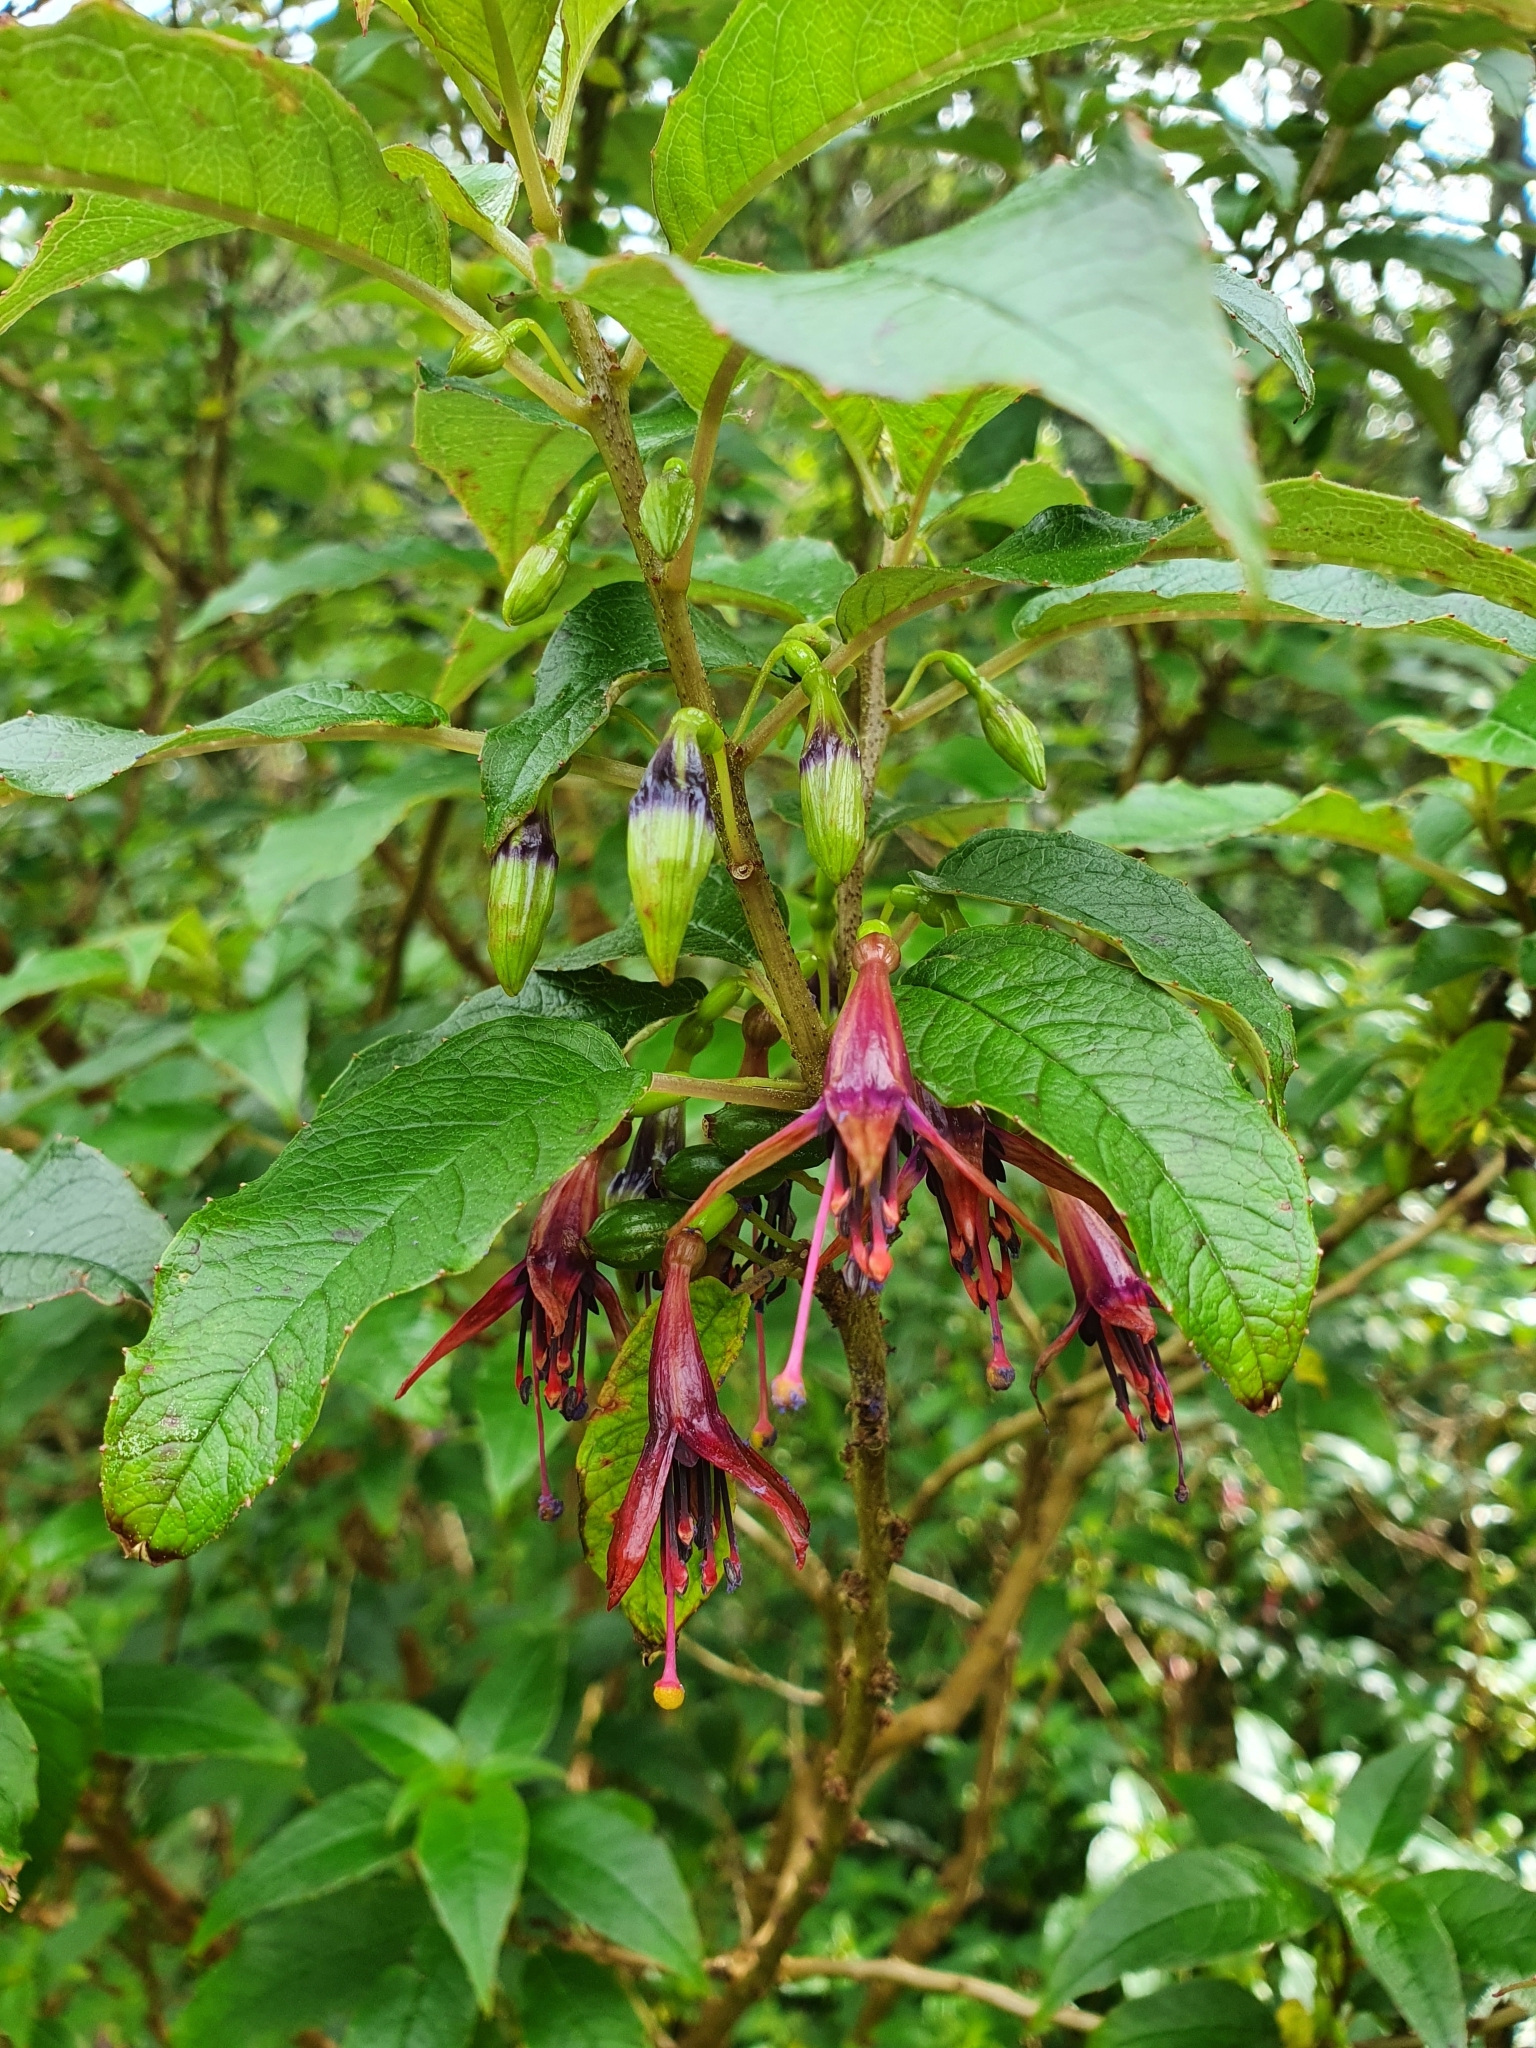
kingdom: Plantae
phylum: Tracheophyta
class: Magnoliopsida
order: Myrtales
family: Onagraceae
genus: Fuchsia
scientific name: Fuchsia excorticata
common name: Tree fuchsia
